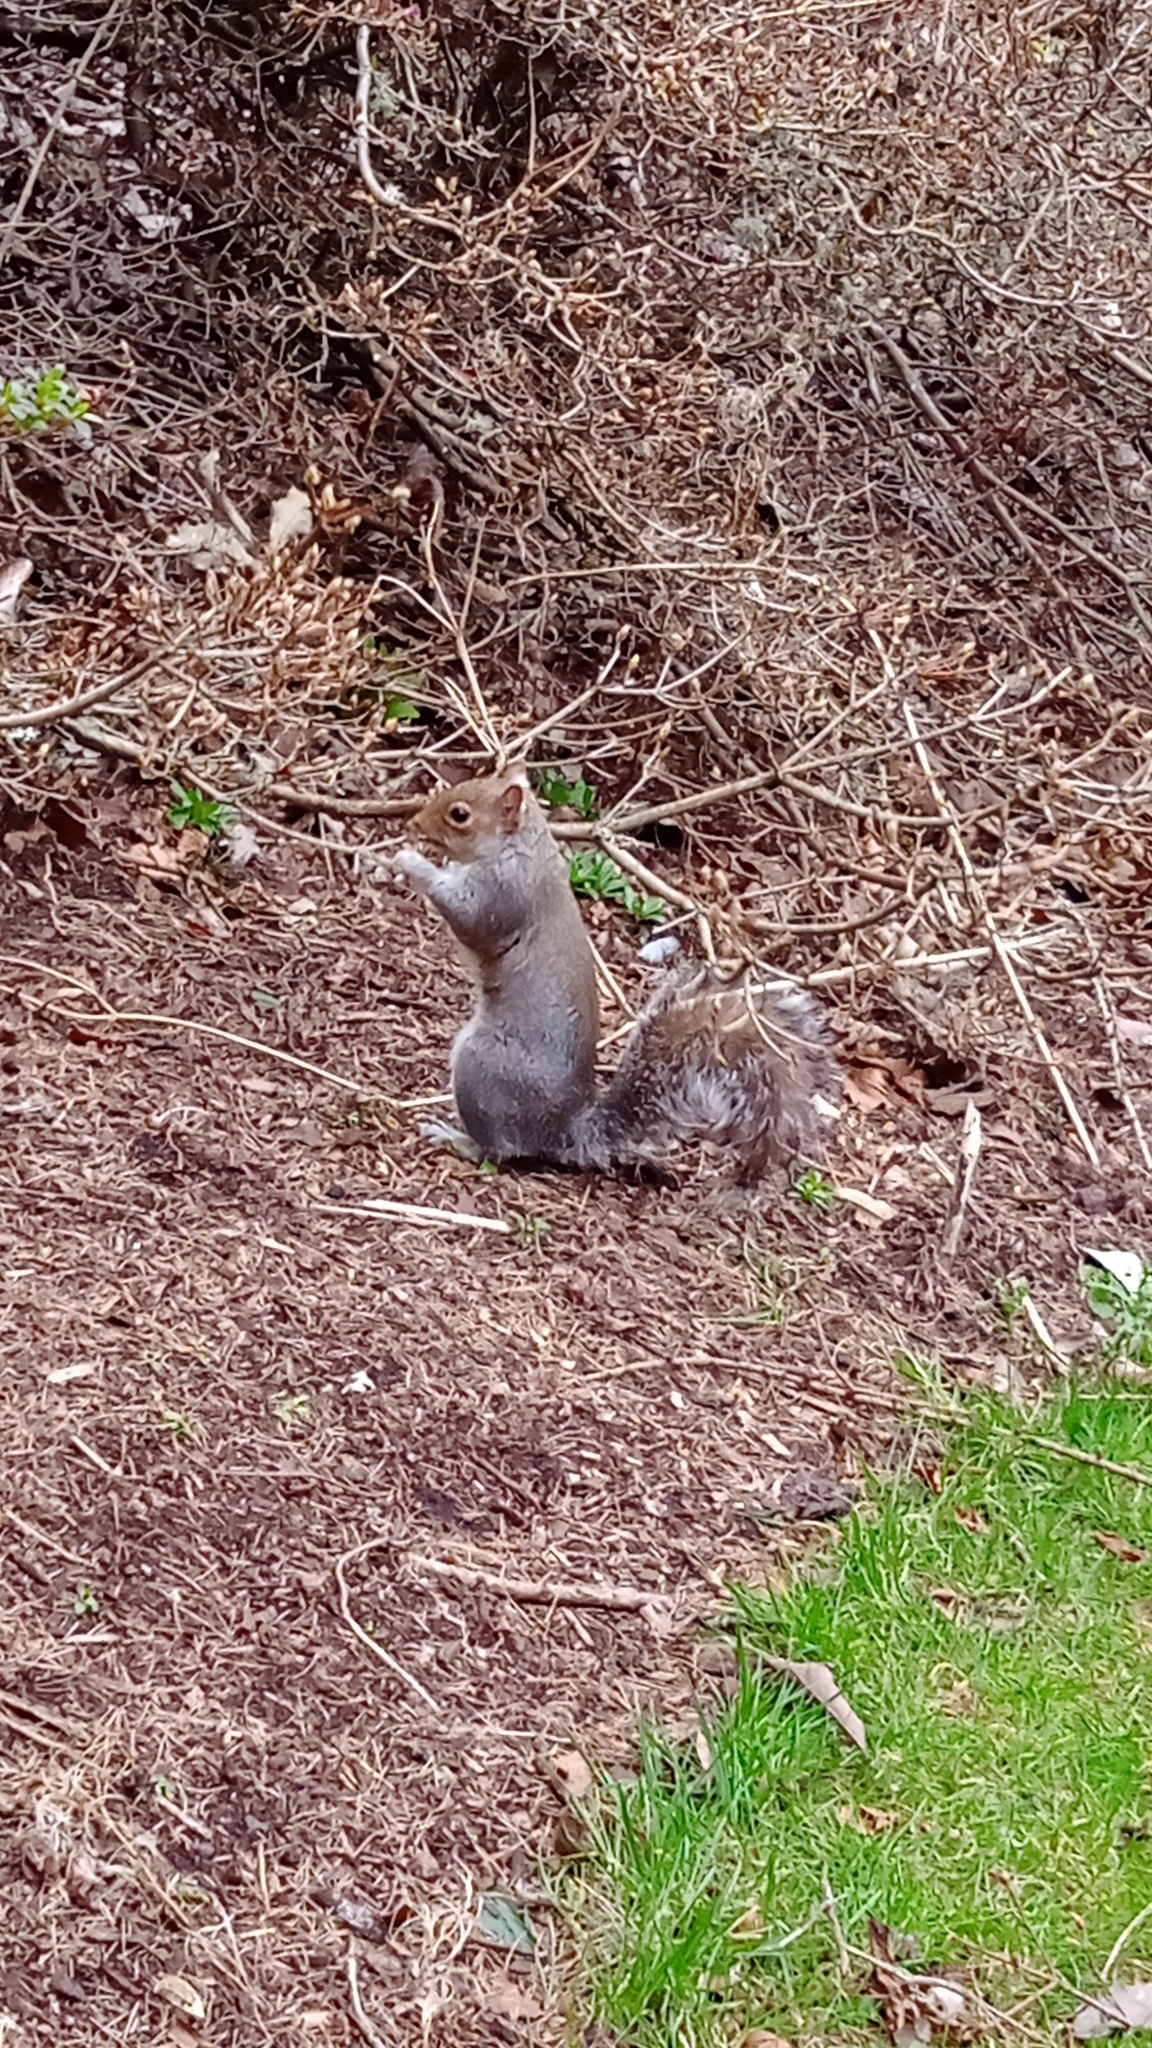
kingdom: Animalia
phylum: Chordata
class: Mammalia
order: Rodentia
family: Sciuridae
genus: Sciurus
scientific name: Sciurus carolinensis
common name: Eastern gray squirrel
